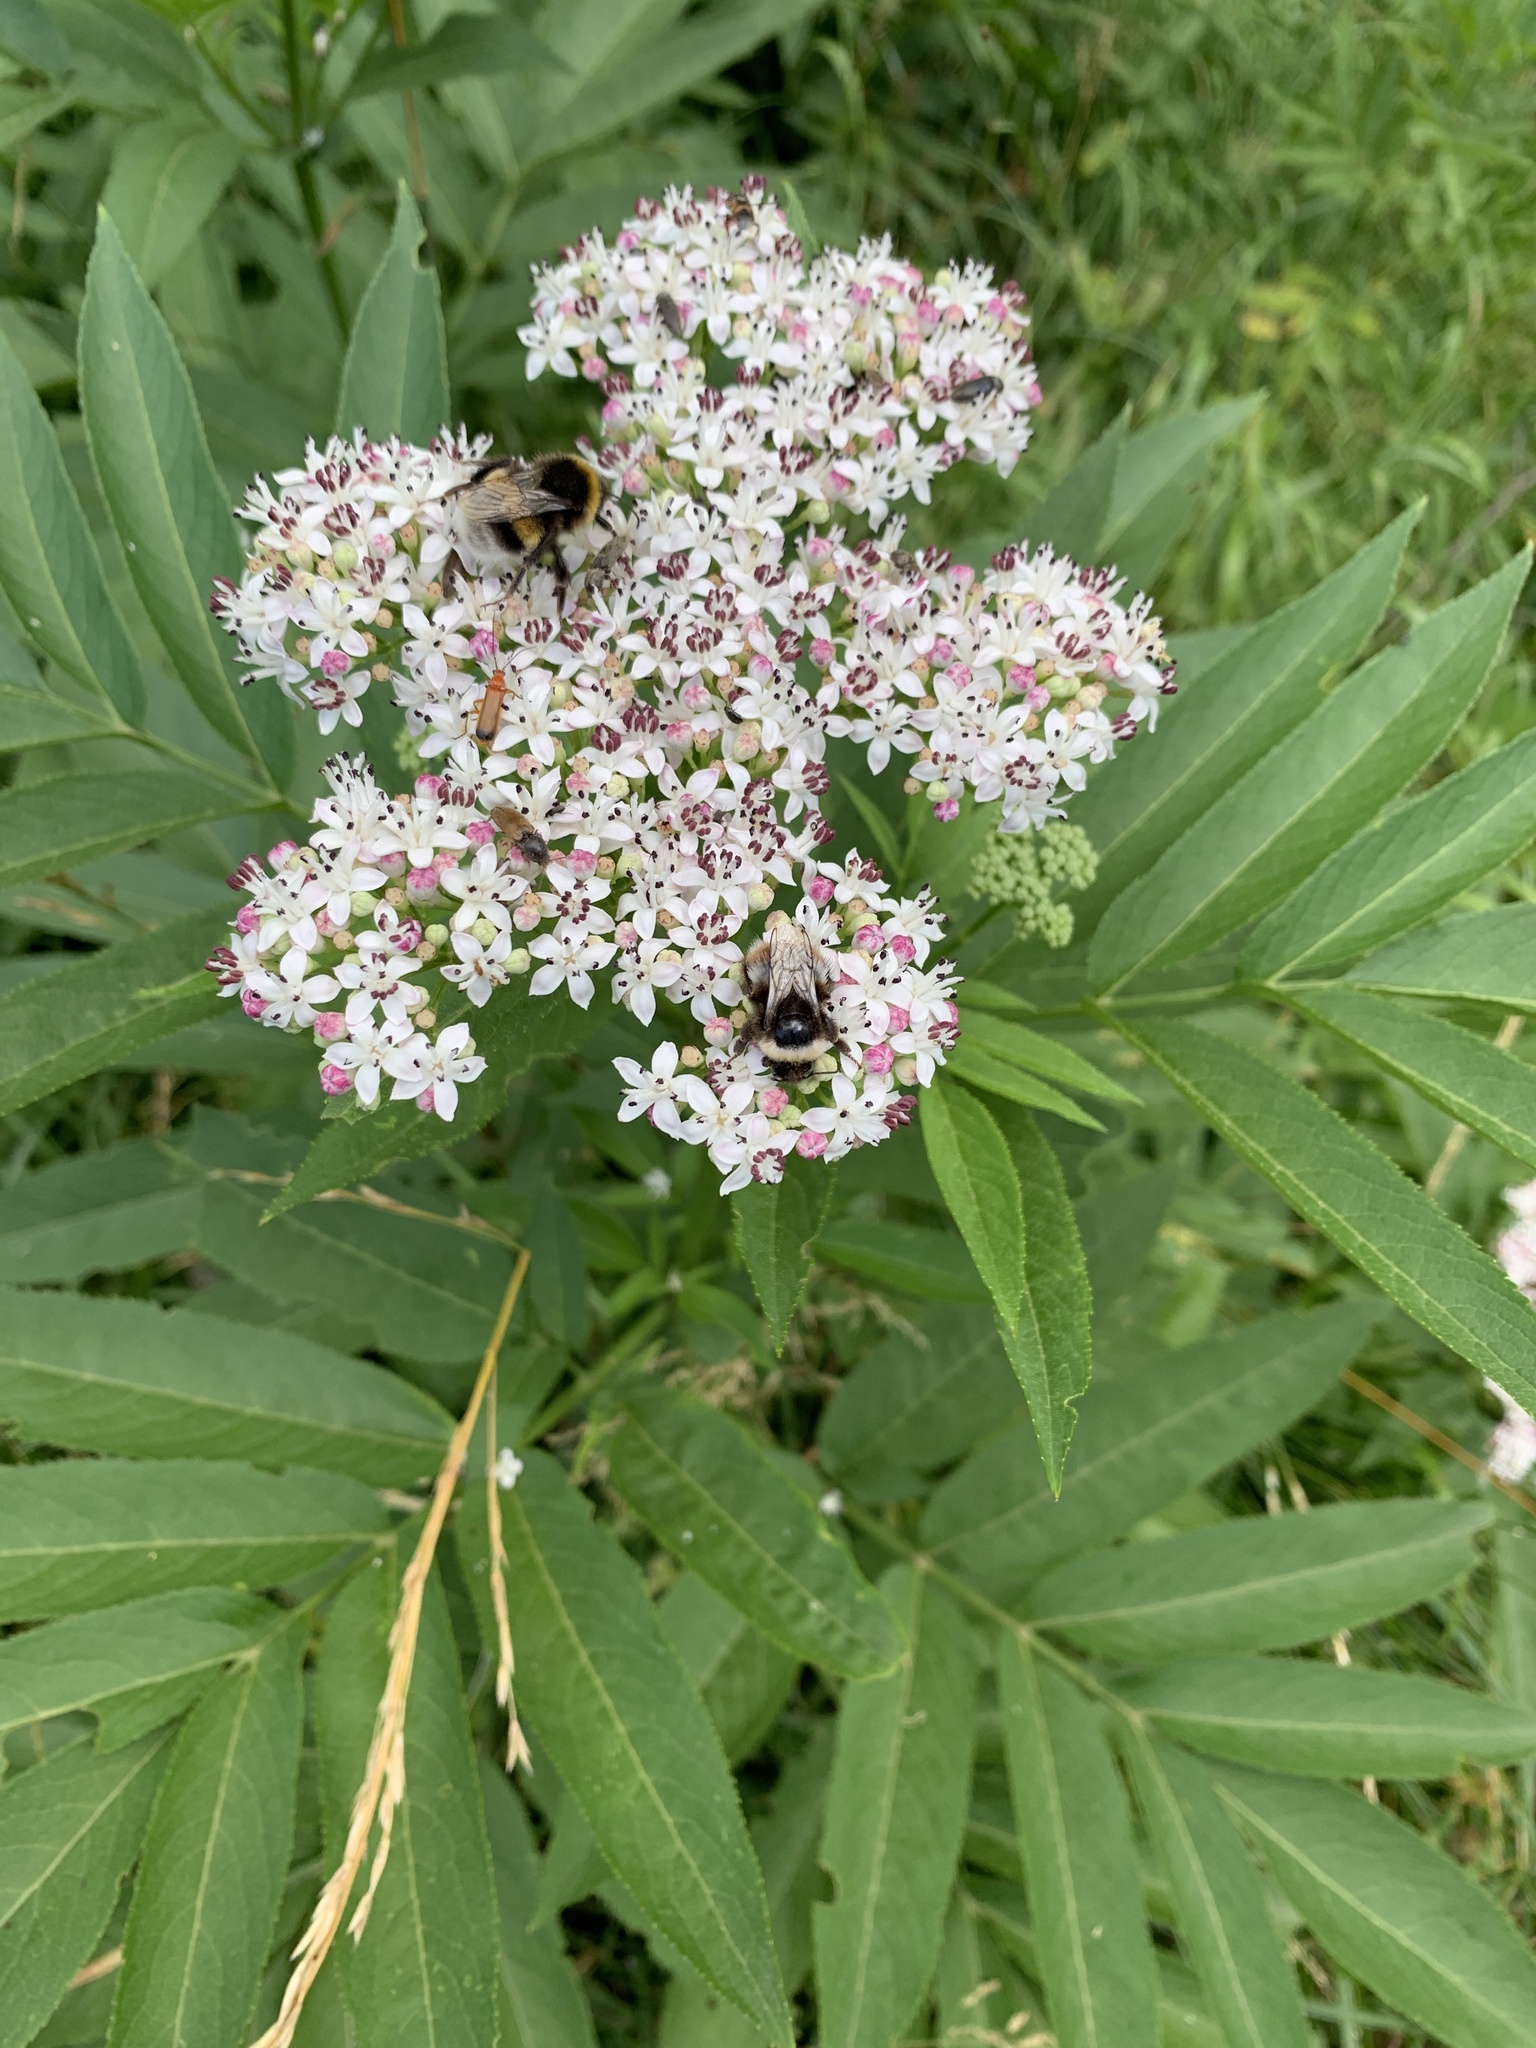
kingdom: Plantae
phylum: Tracheophyta
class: Magnoliopsida
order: Dipsacales
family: Viburnaceae
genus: Sambucus
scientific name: Sambucus ebulus
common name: Dwarf elder
